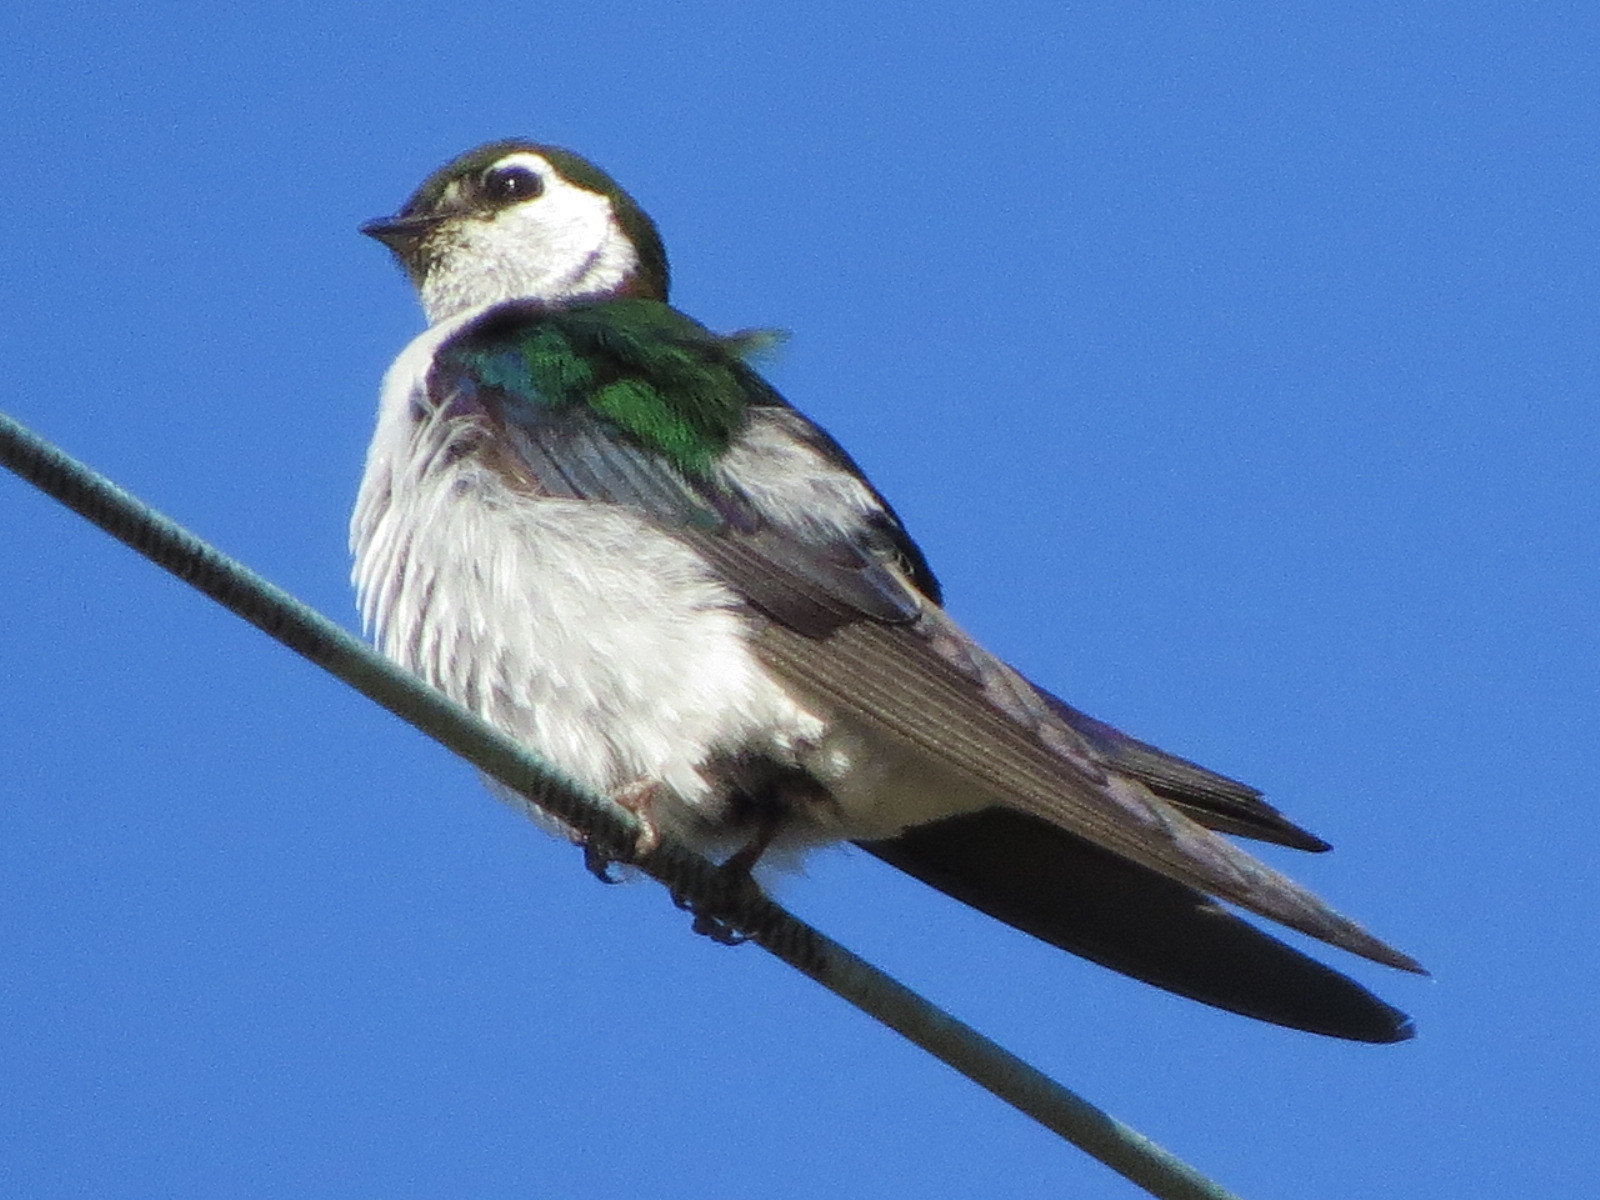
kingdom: Animalia
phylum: Chordata
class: Aves
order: Passeriformes
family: Hirundinidae
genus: Tachycineta
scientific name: Tachycineta thalassina
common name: Violet-green swallow
